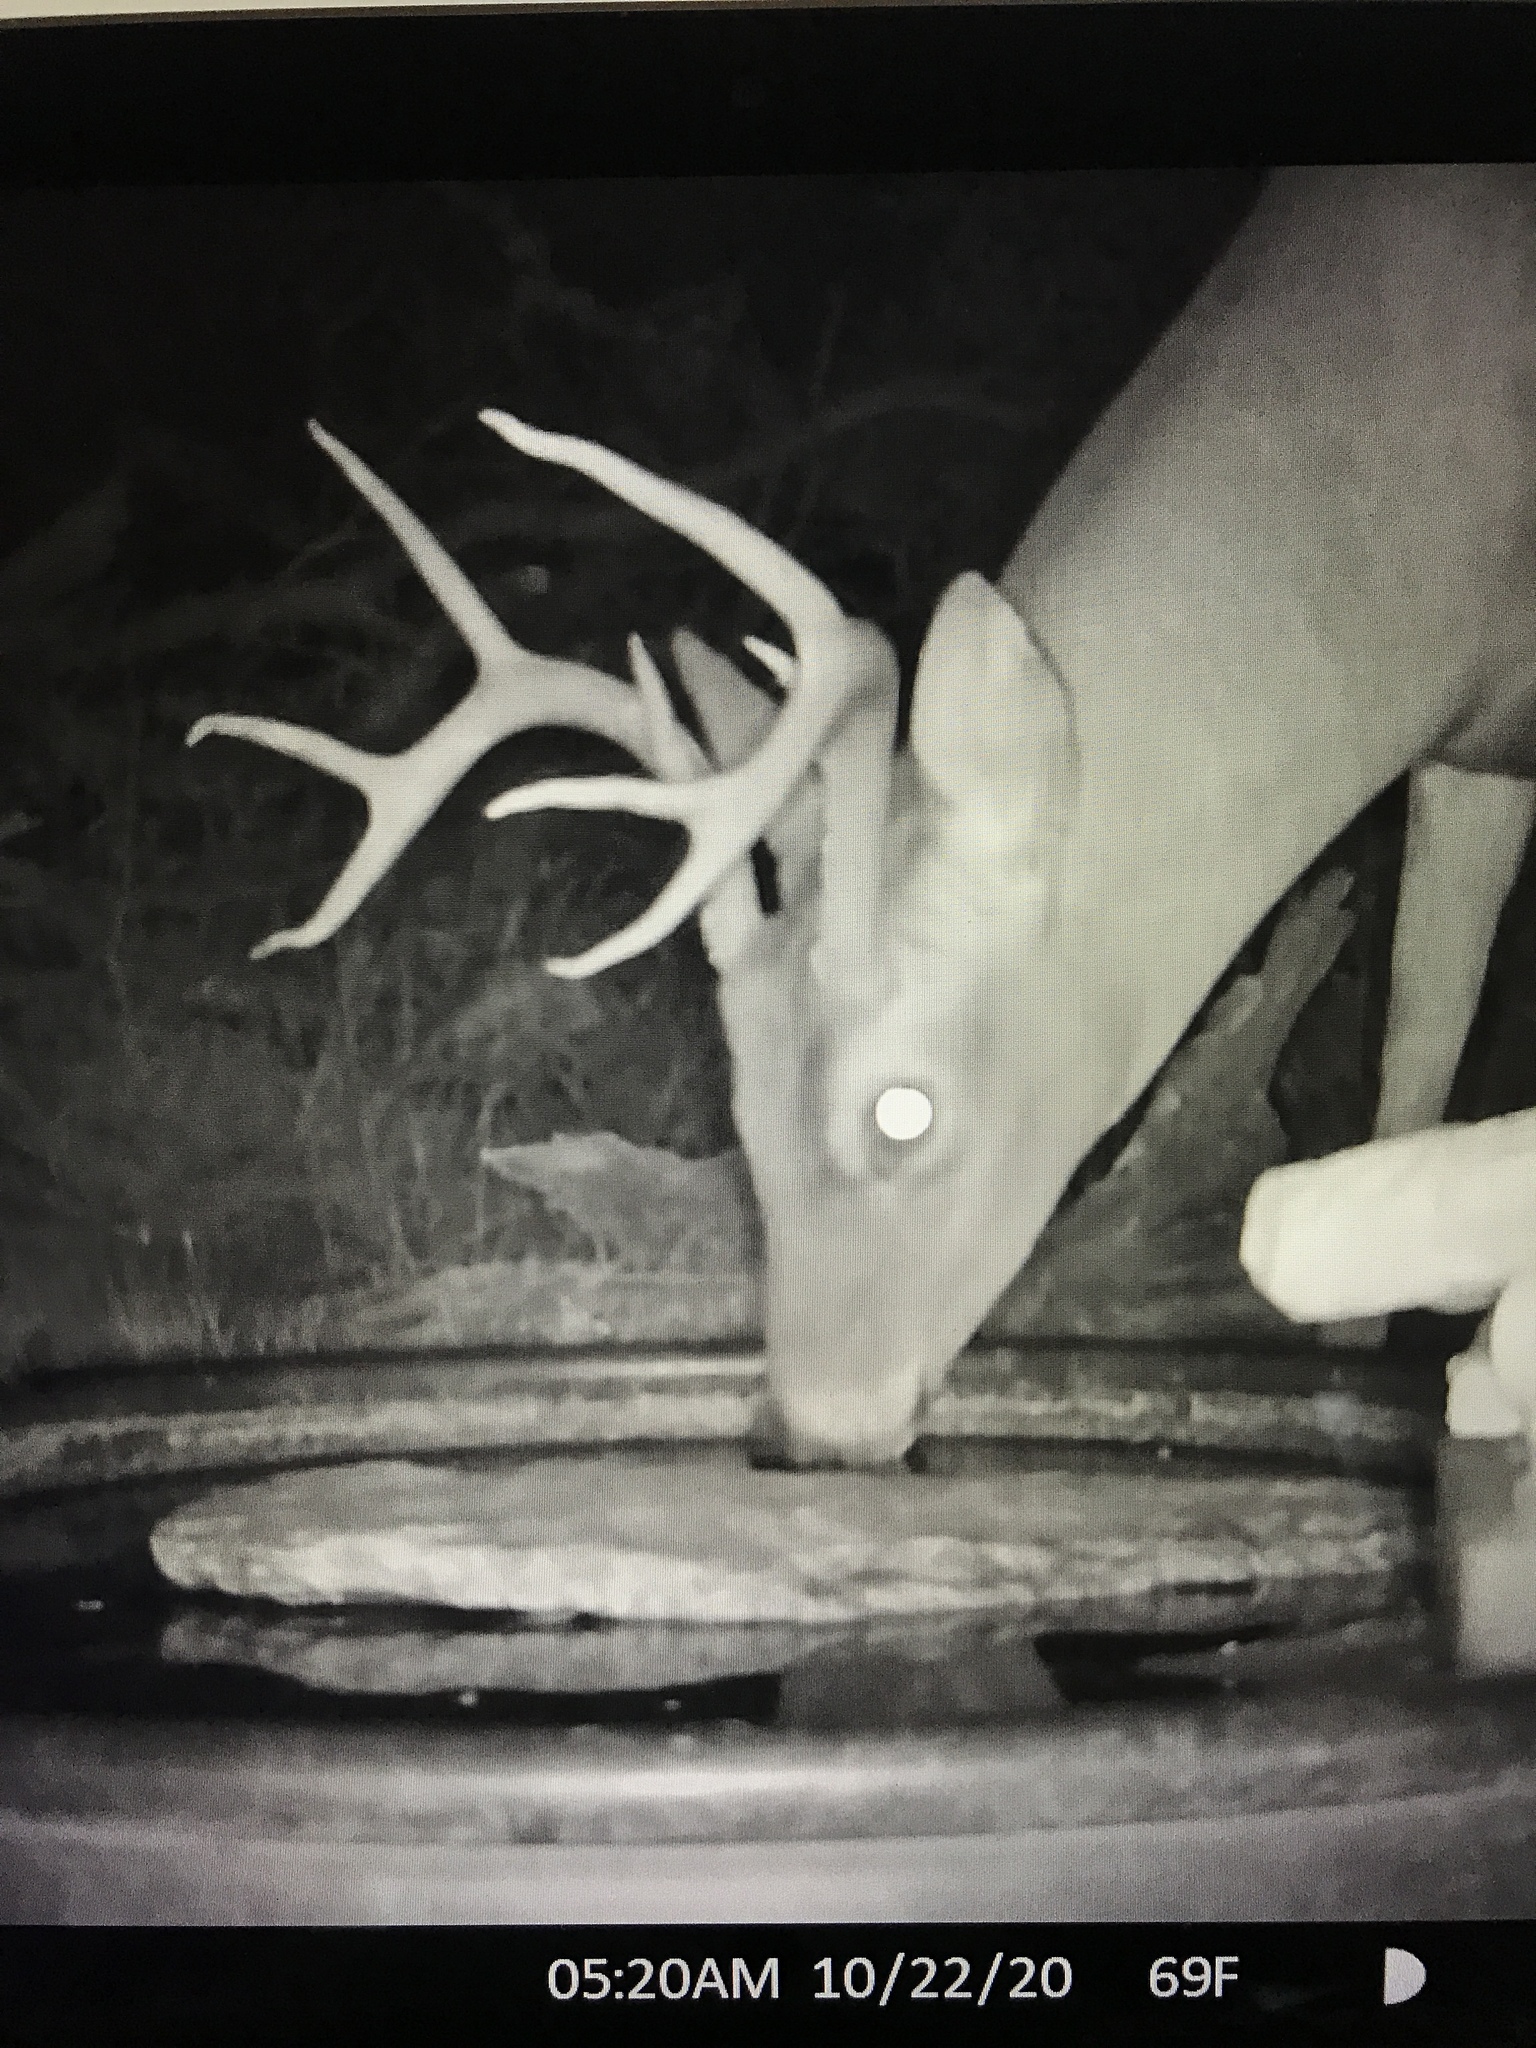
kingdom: Animalia
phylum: Chordata
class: Mammalia
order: Artiodactyla
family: Cervidae
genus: Odocoileus
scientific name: Odocoileus virginianus
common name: White-tailed deer
